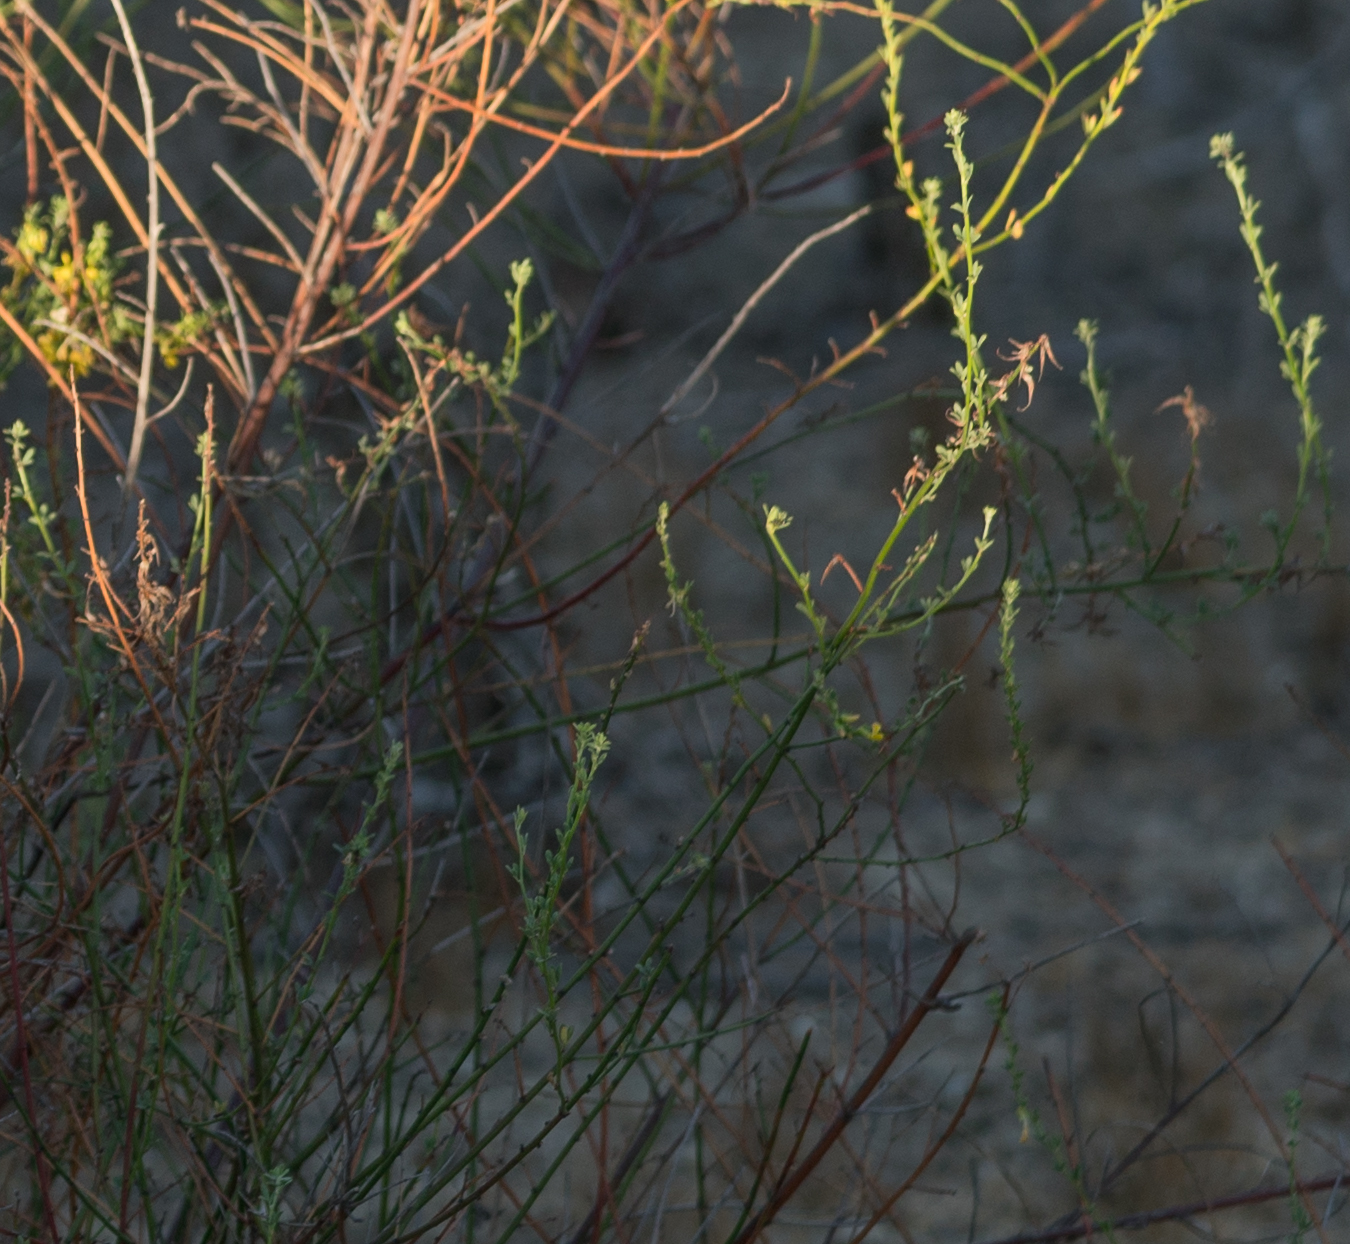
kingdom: Plantae
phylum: Tracheophyta
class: Magnoliopsida
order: Fabales
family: Fabaceae
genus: Acmispon
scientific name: Acmispon glaber
